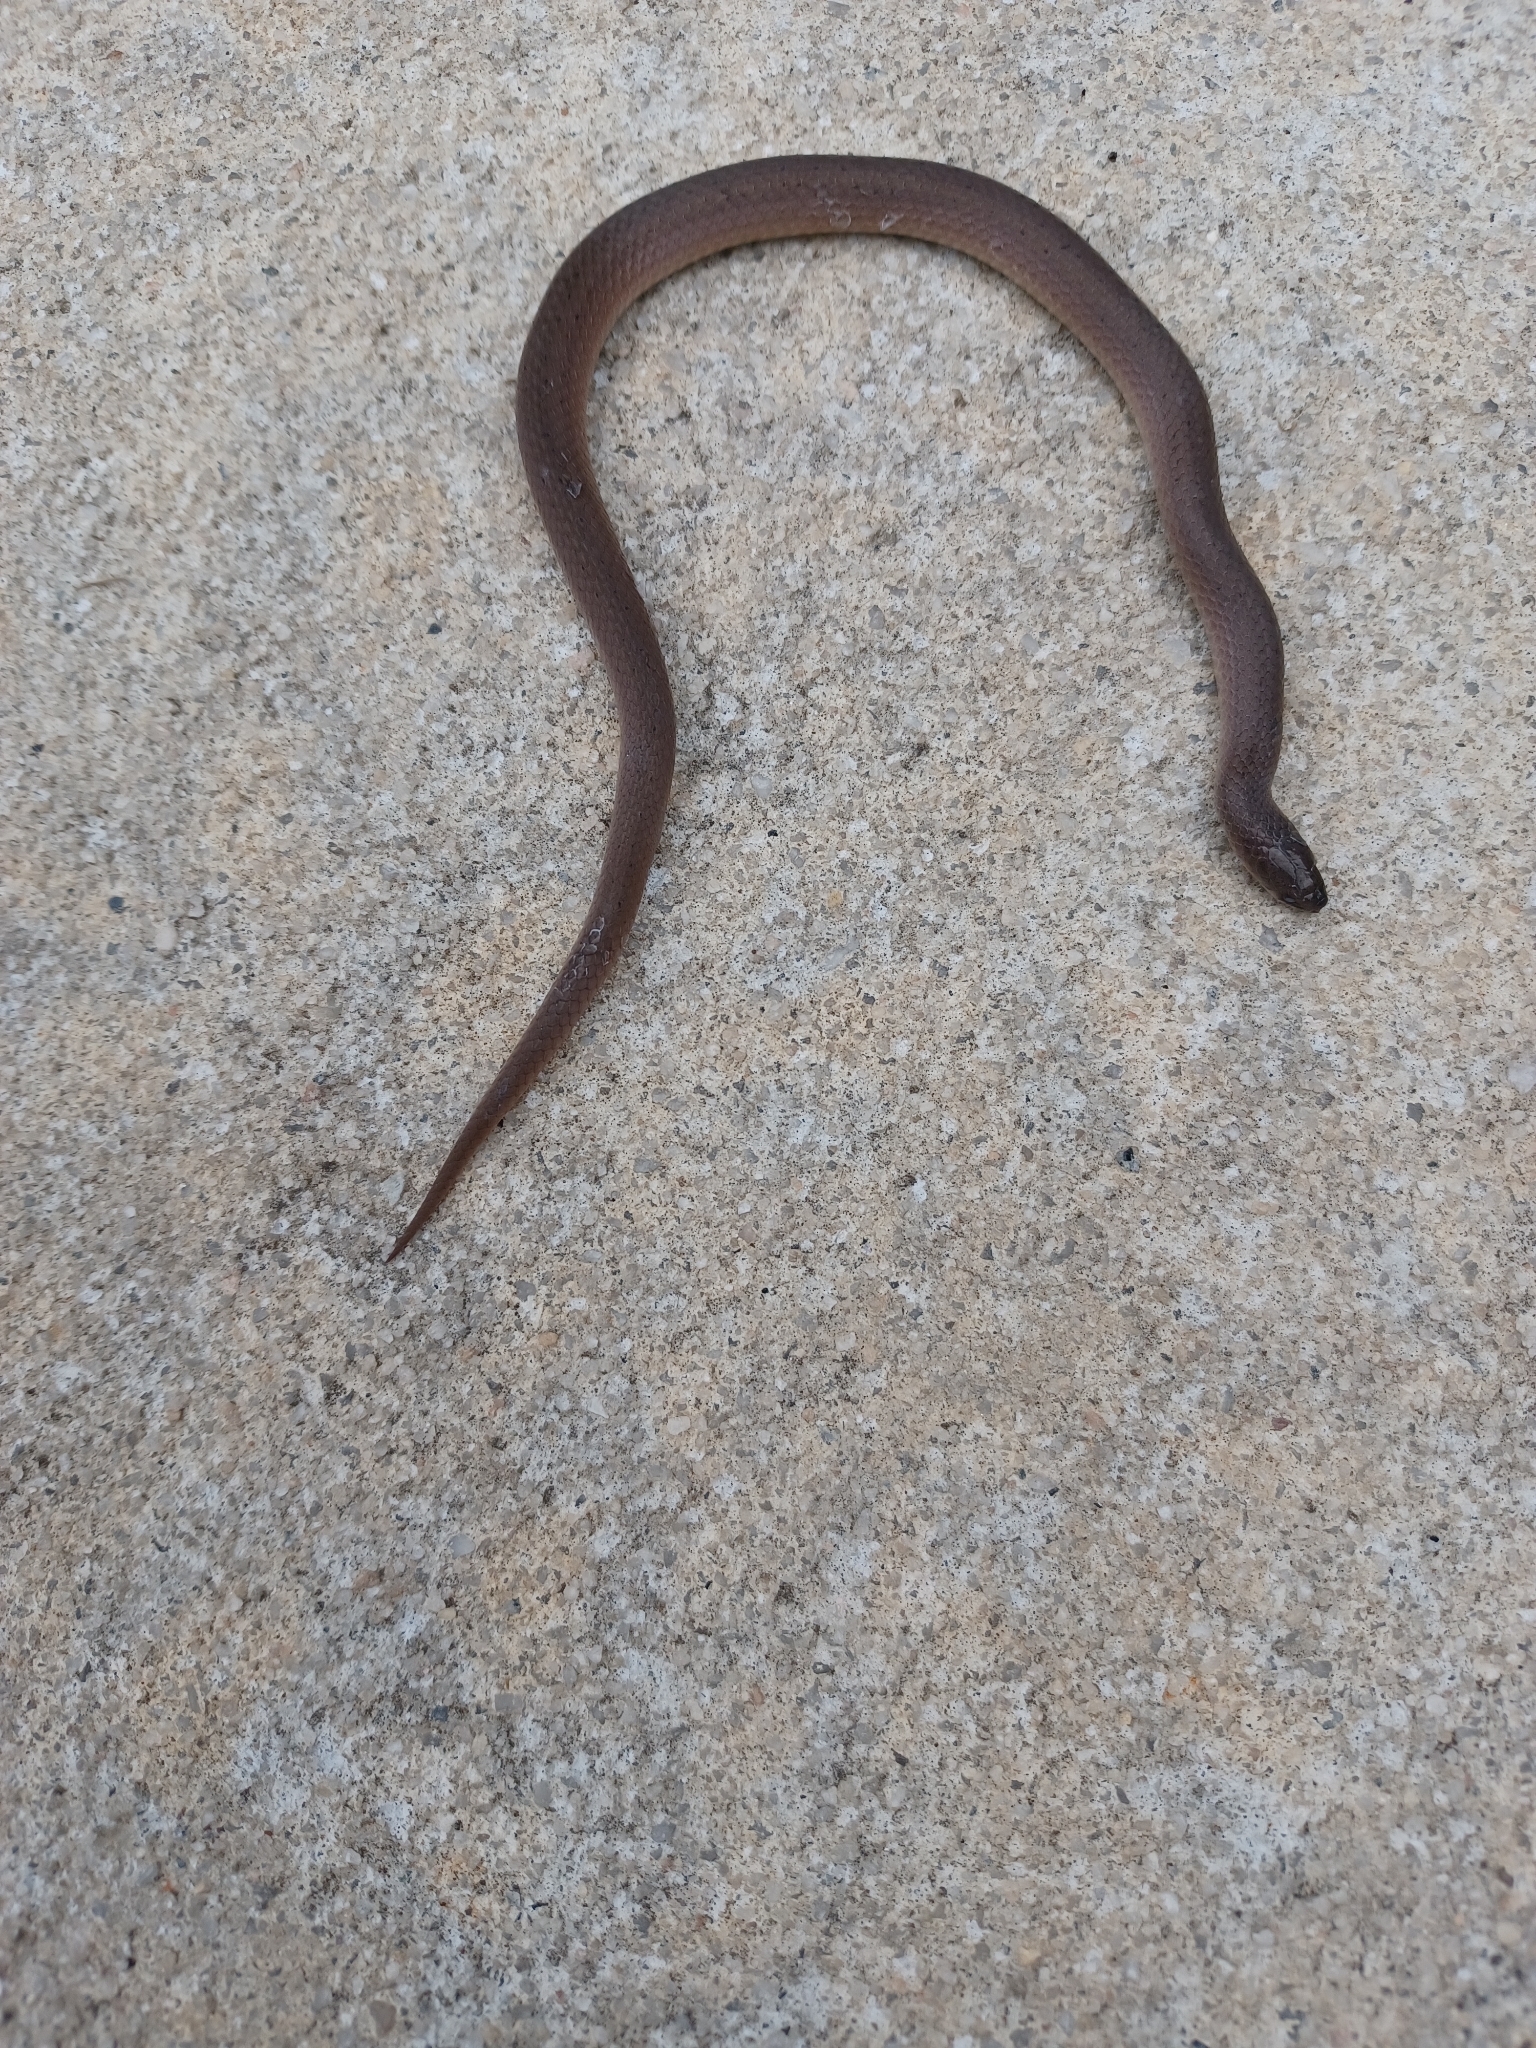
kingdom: Animalia
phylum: Chordata
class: Squamata
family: Colubridae
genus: Virginia
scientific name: Virginia valeriae
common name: Smooth earth snake
